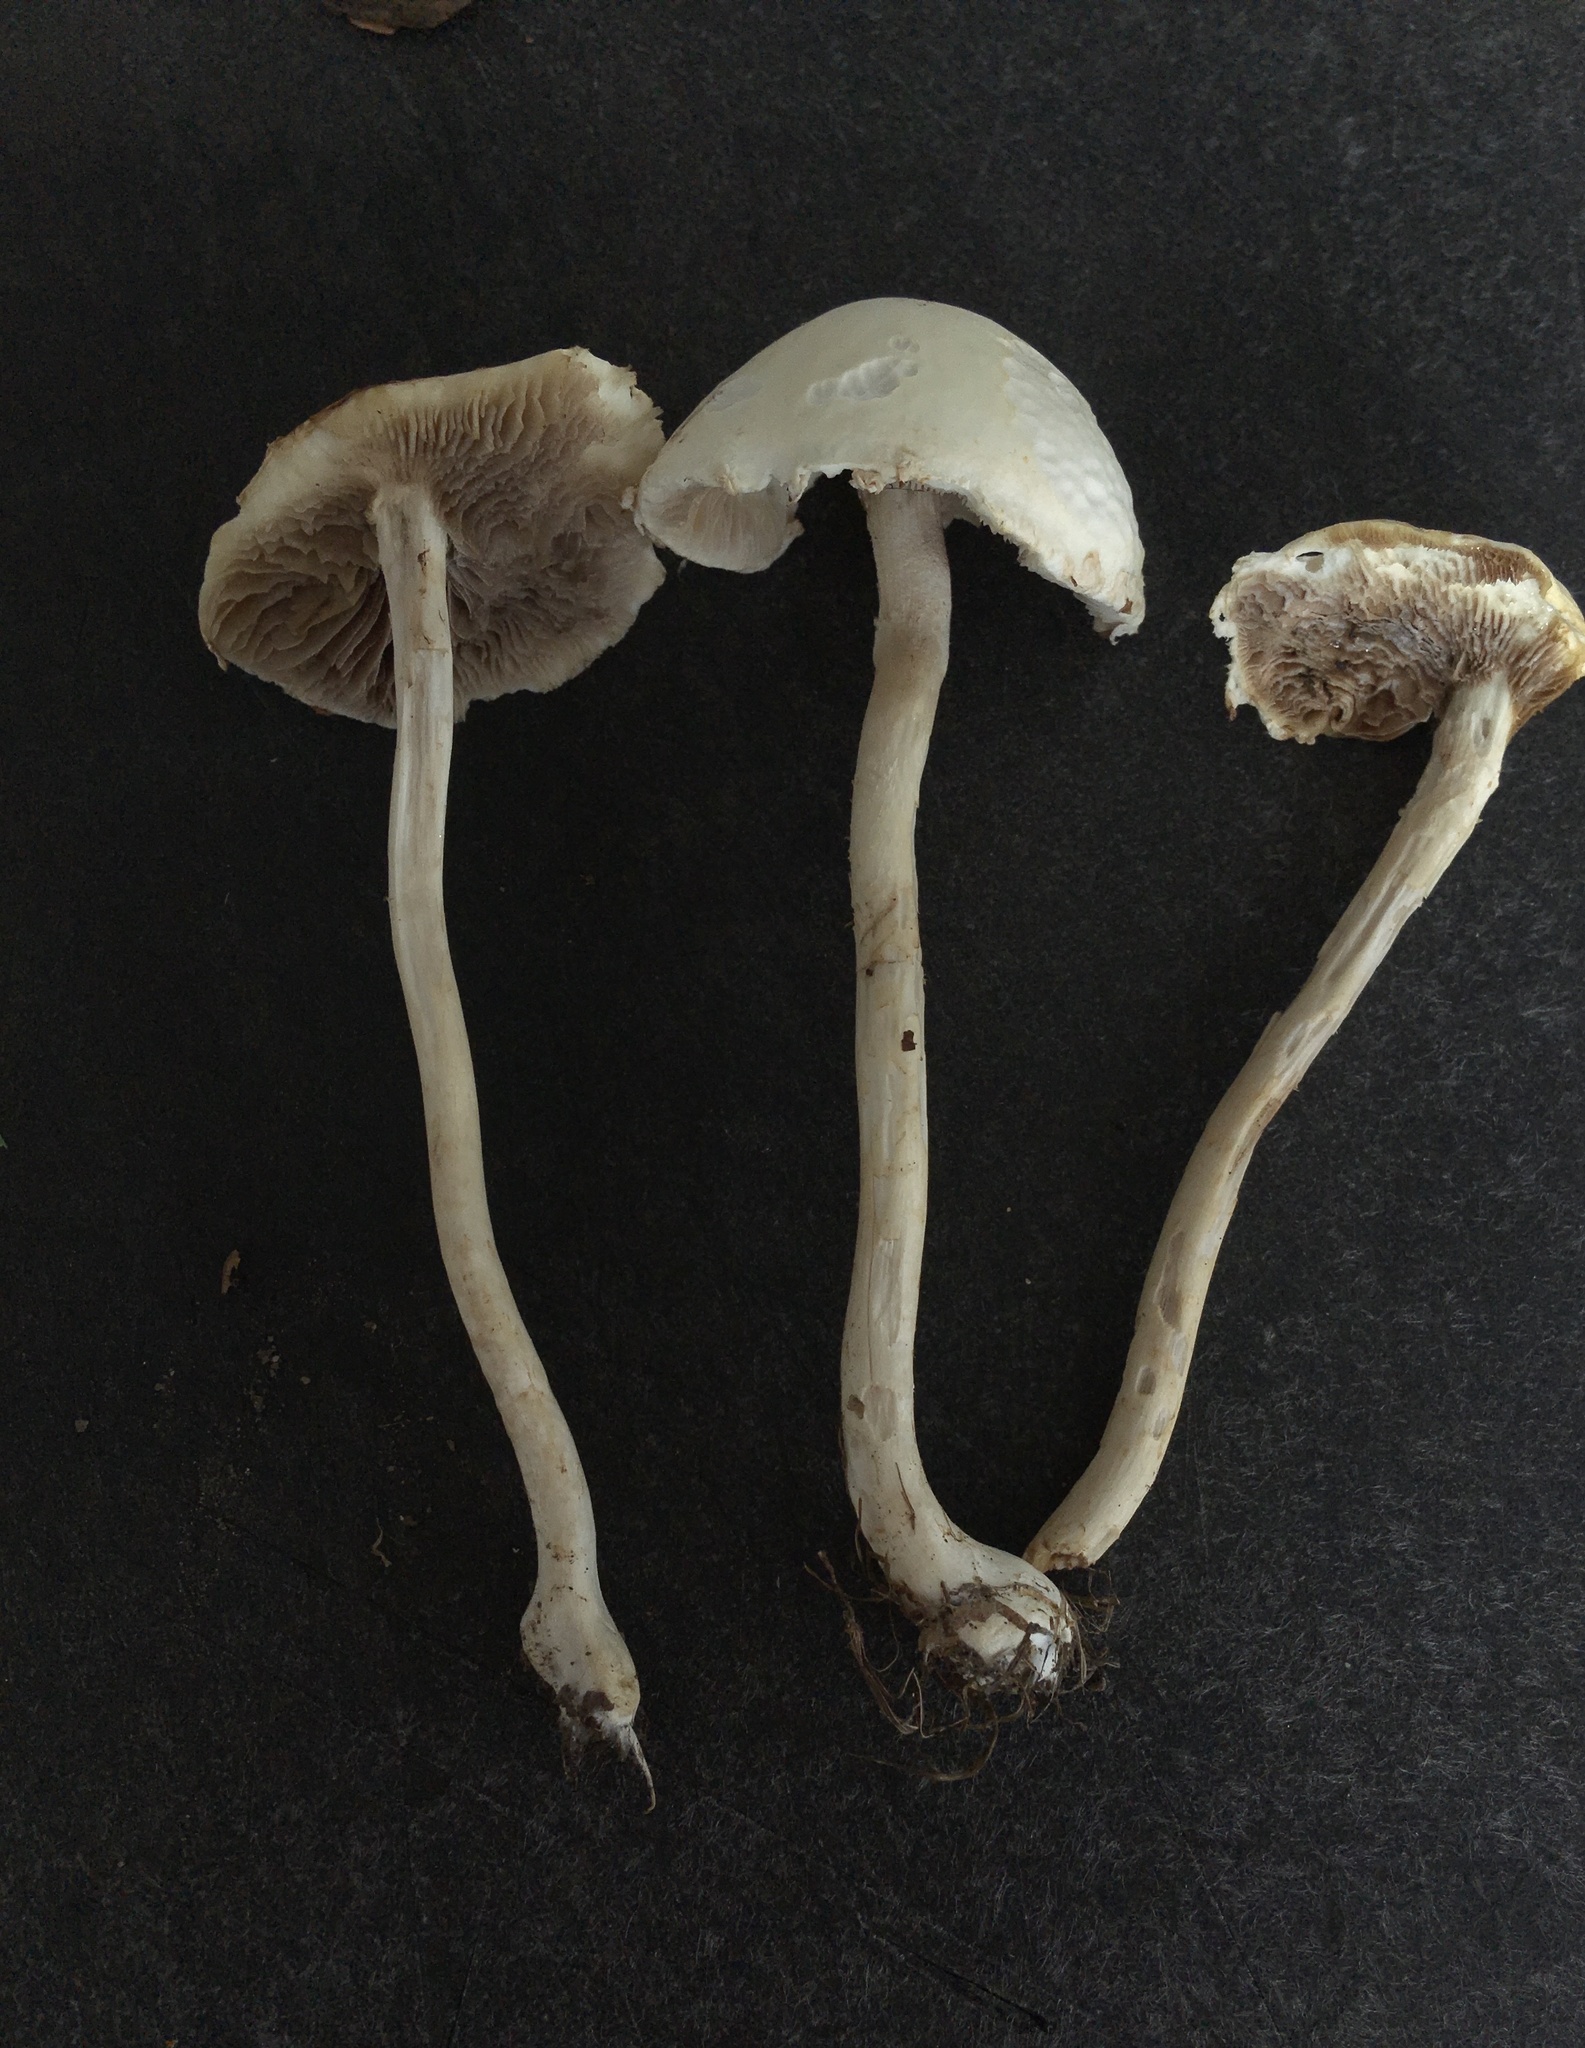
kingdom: Fungi
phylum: Basidiomycota
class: Agaricomycetes
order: Agaricales
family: Psathyrellaceae
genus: Candolleomyces
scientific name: Candolleomyces candolleanus
